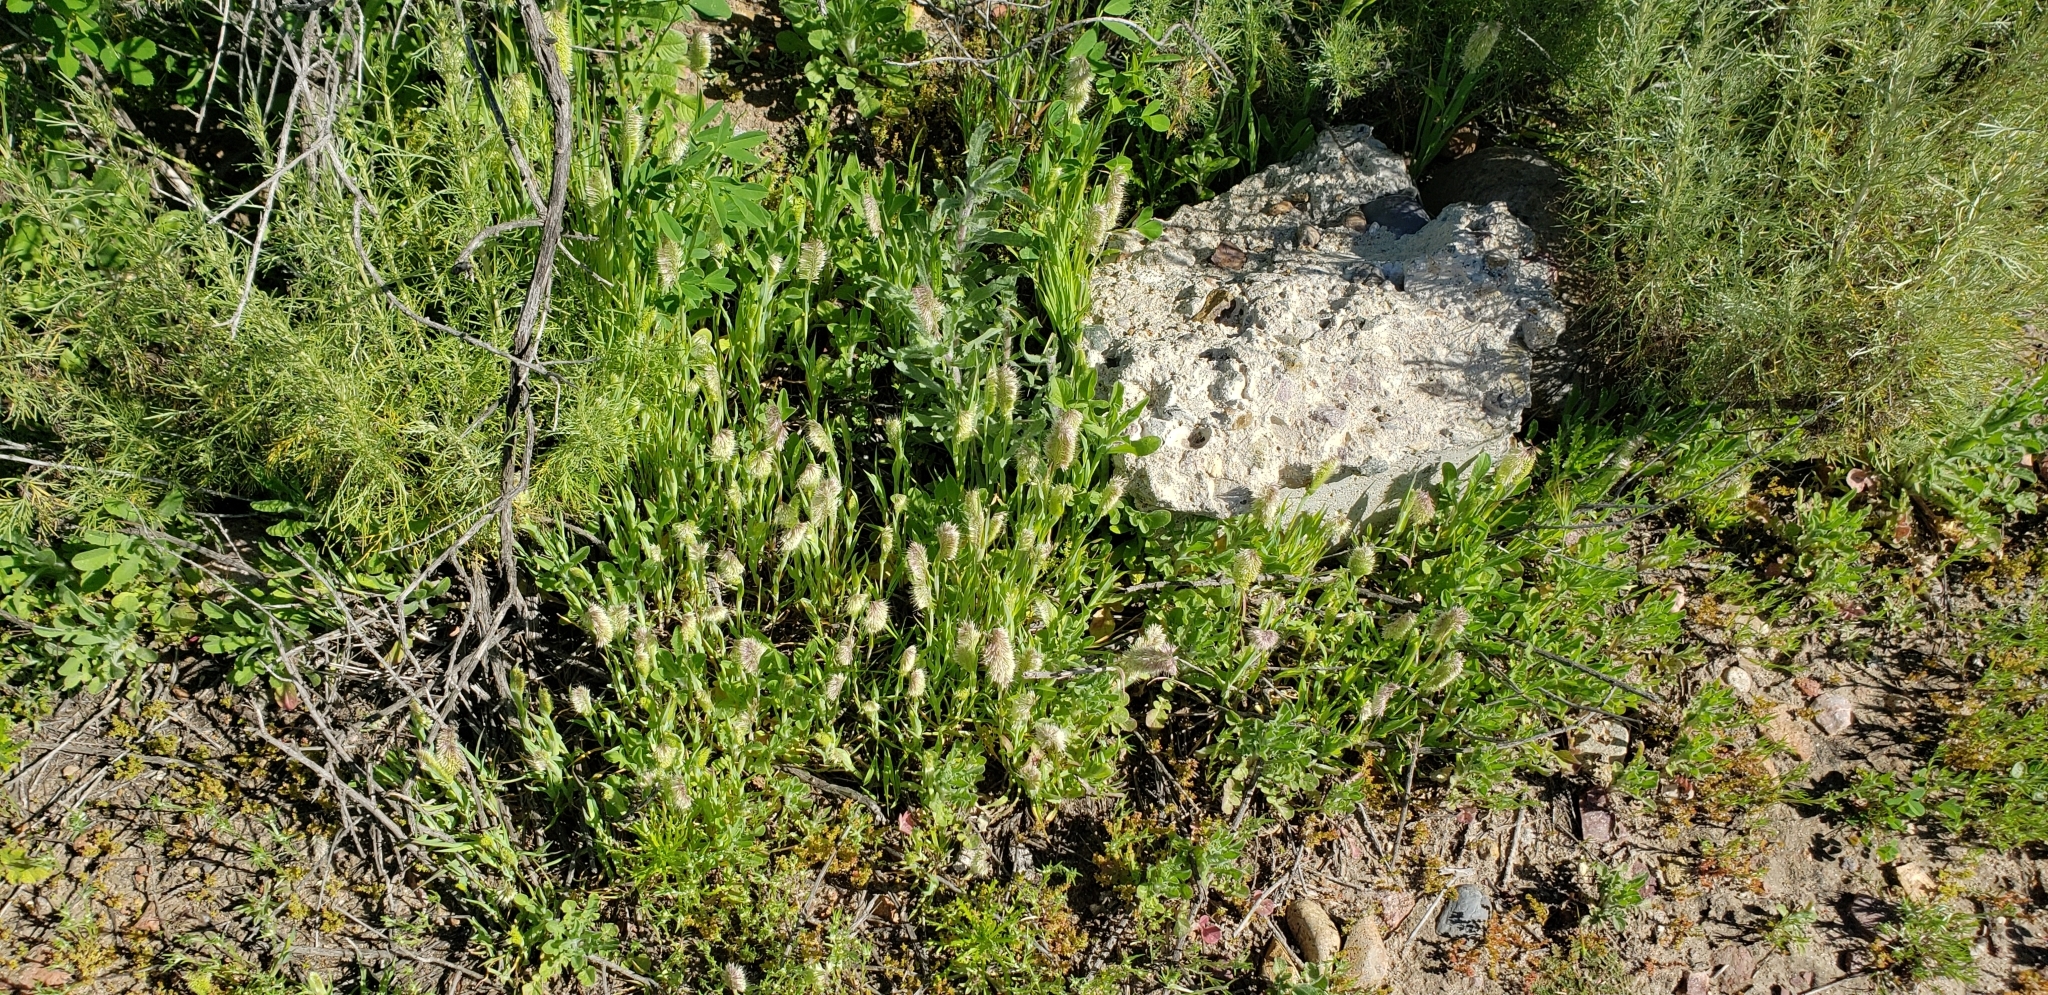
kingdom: Plantae
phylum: Tracheophyta
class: Liliopsida
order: Poales
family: Poaceae
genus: Lamarckia
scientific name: Lamarckia aurea
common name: Golden dog's-tail
